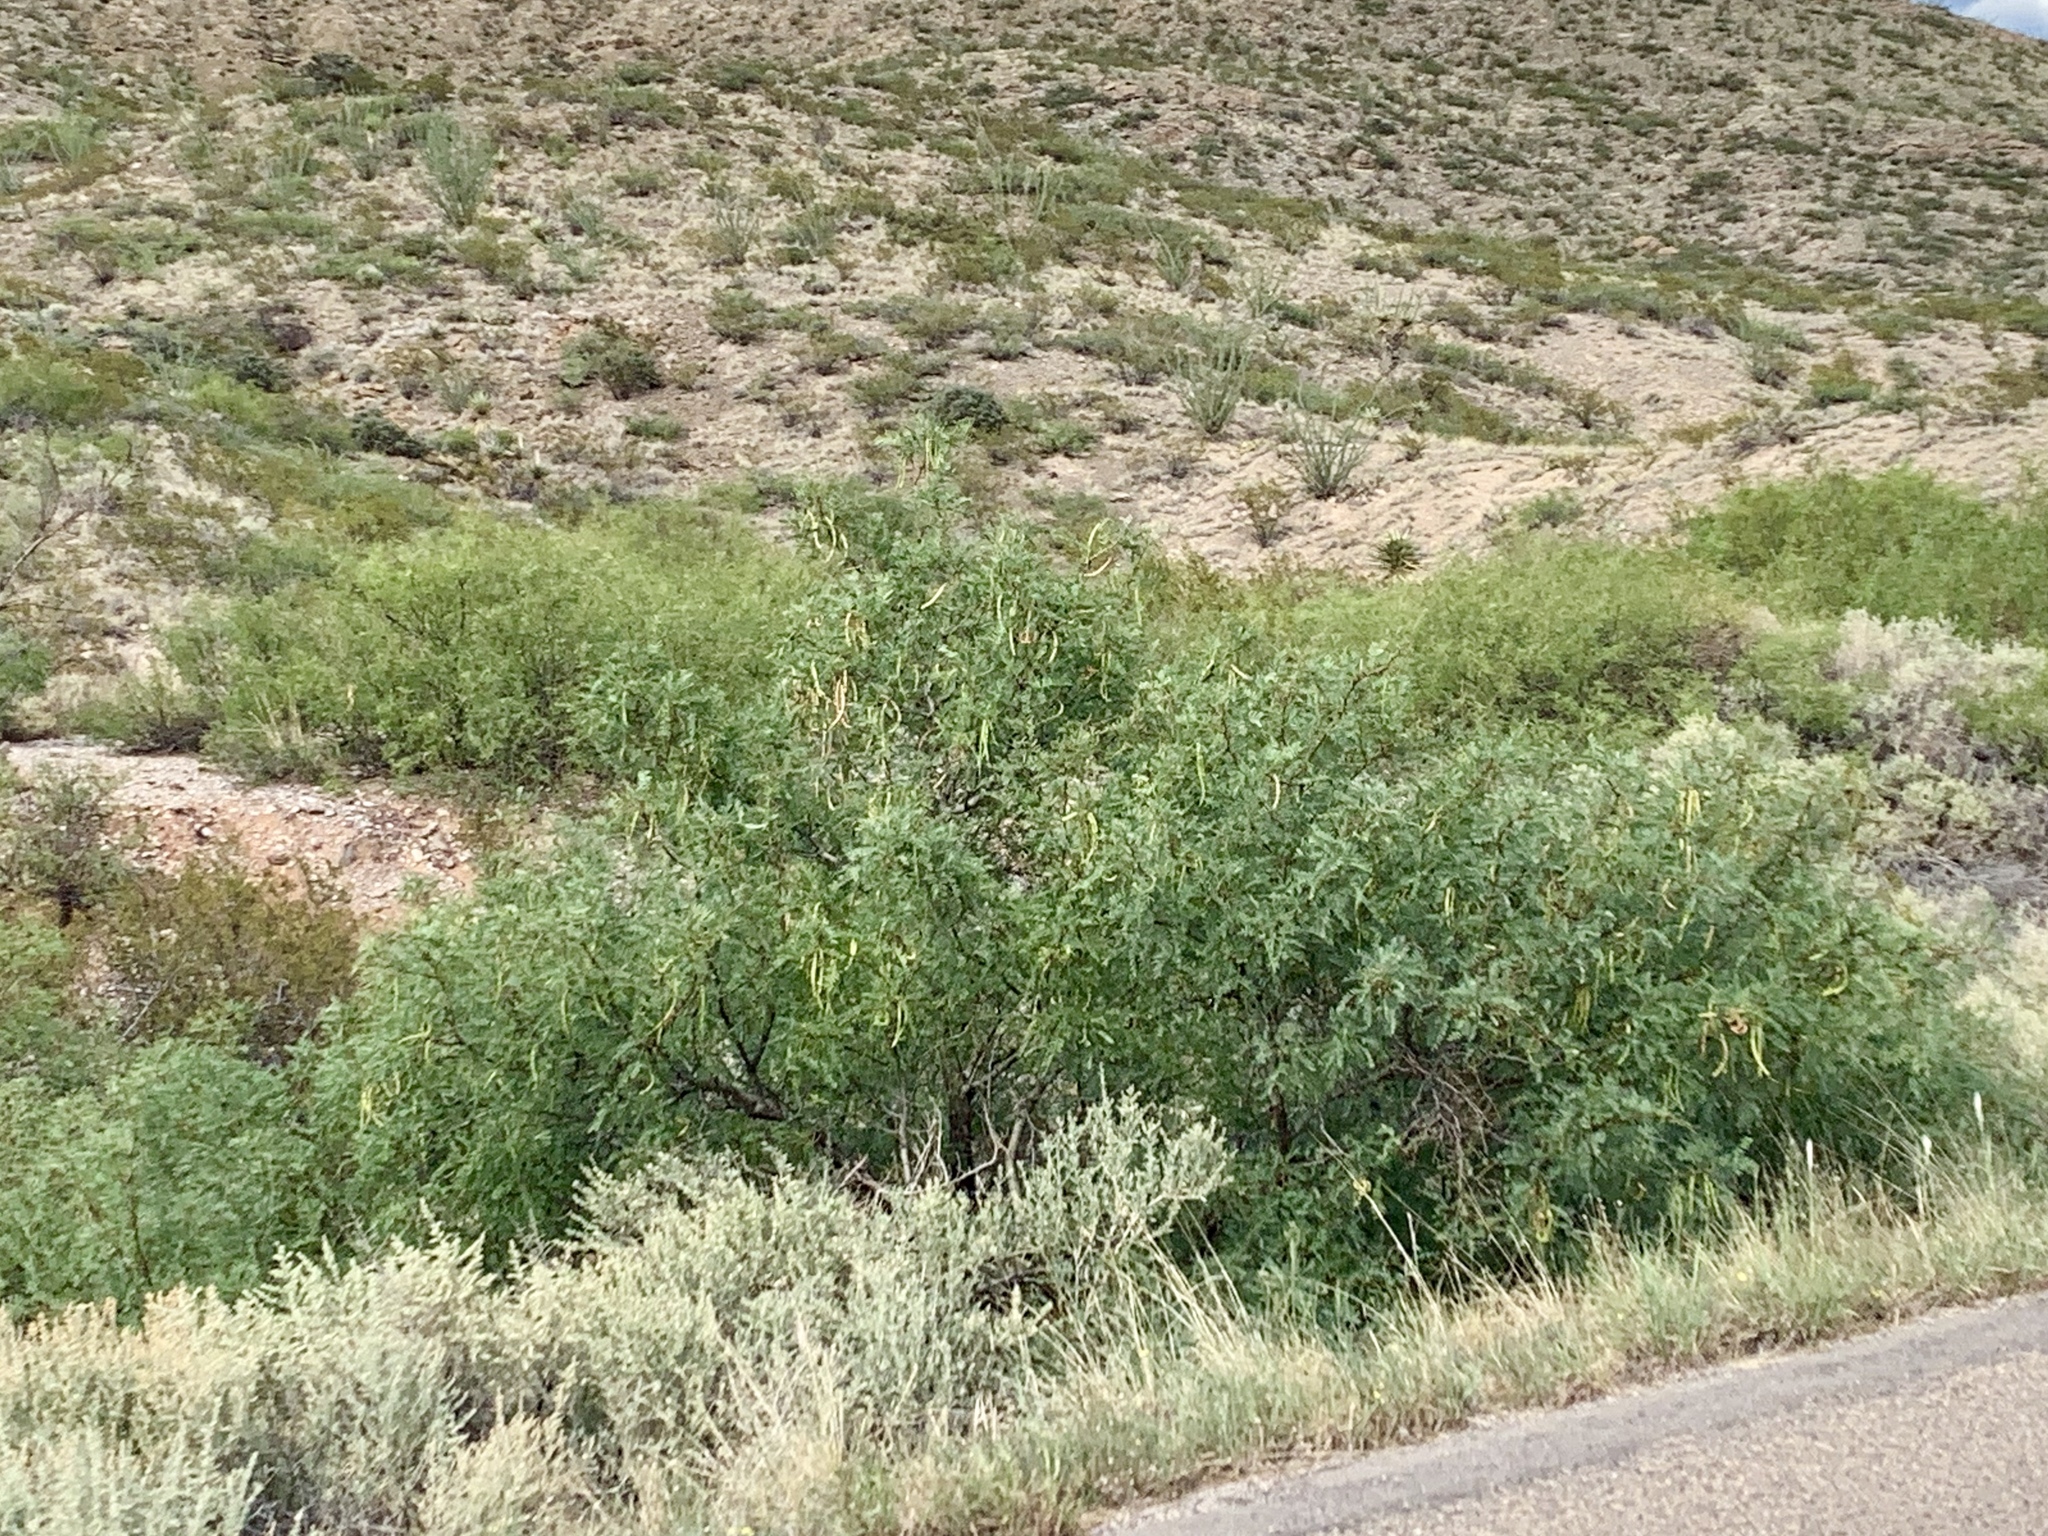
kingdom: Plantae
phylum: Tracheophyta
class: Magnoliopsida
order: Fabales
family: Fabaceae
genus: Prosopis
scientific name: Prosopis glandulosa
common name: Honey mesquite
